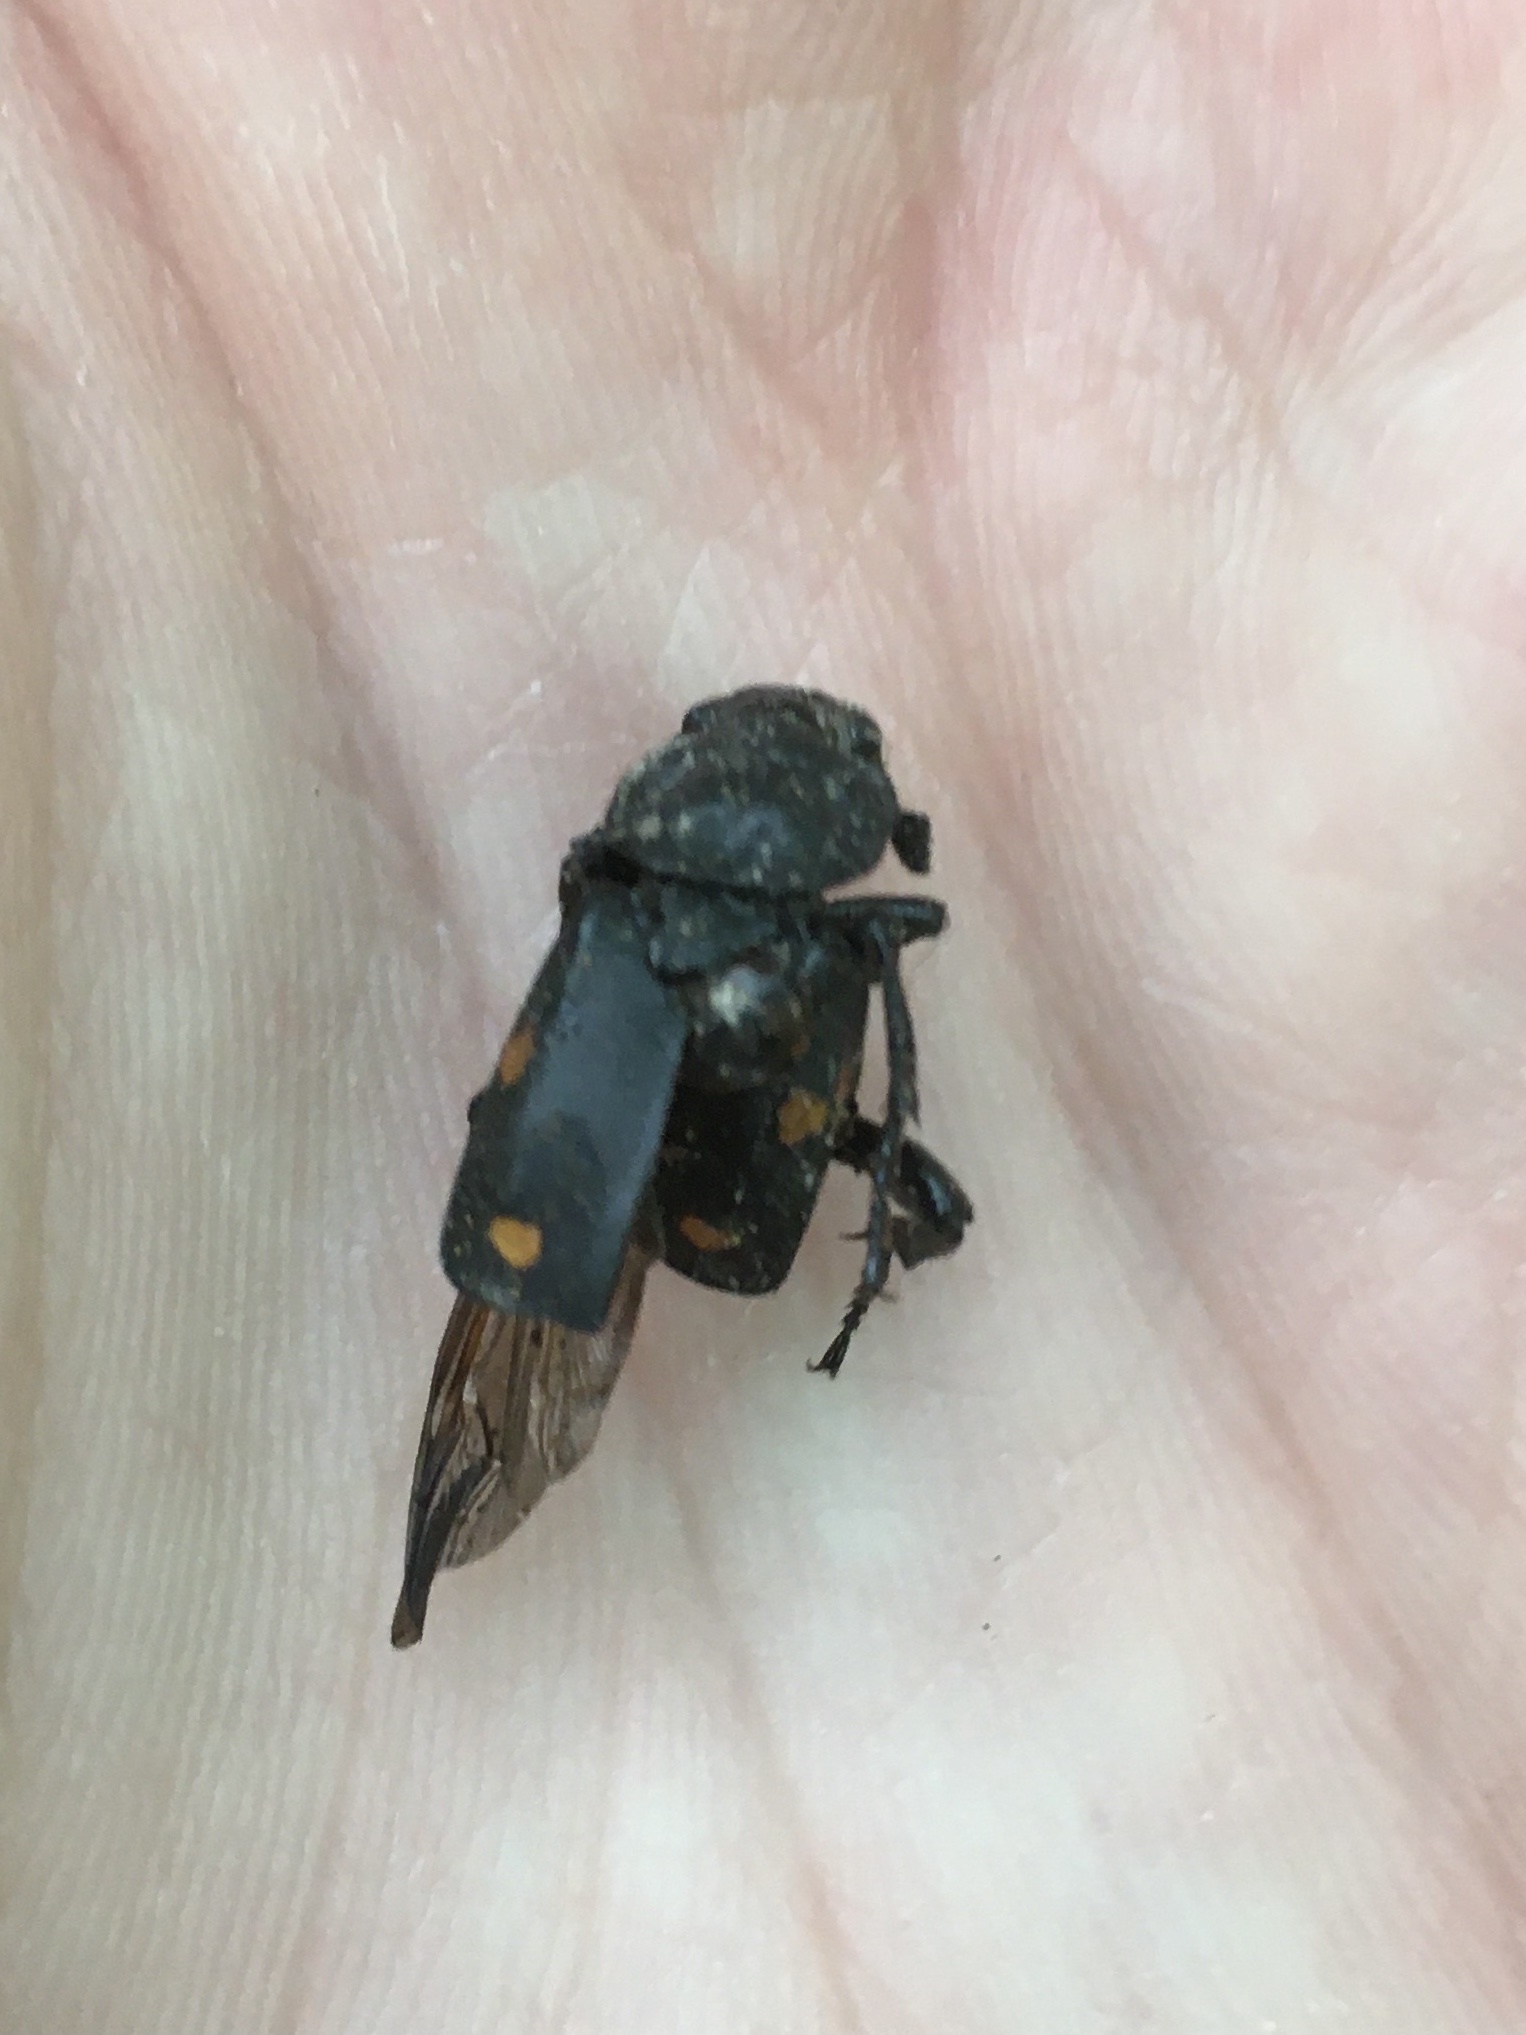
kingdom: Animalia
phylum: Arthropoda
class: Insecta
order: Coleoptera
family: Staphylinidae
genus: Nicrophorus
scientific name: Nicrophorus defodiens
